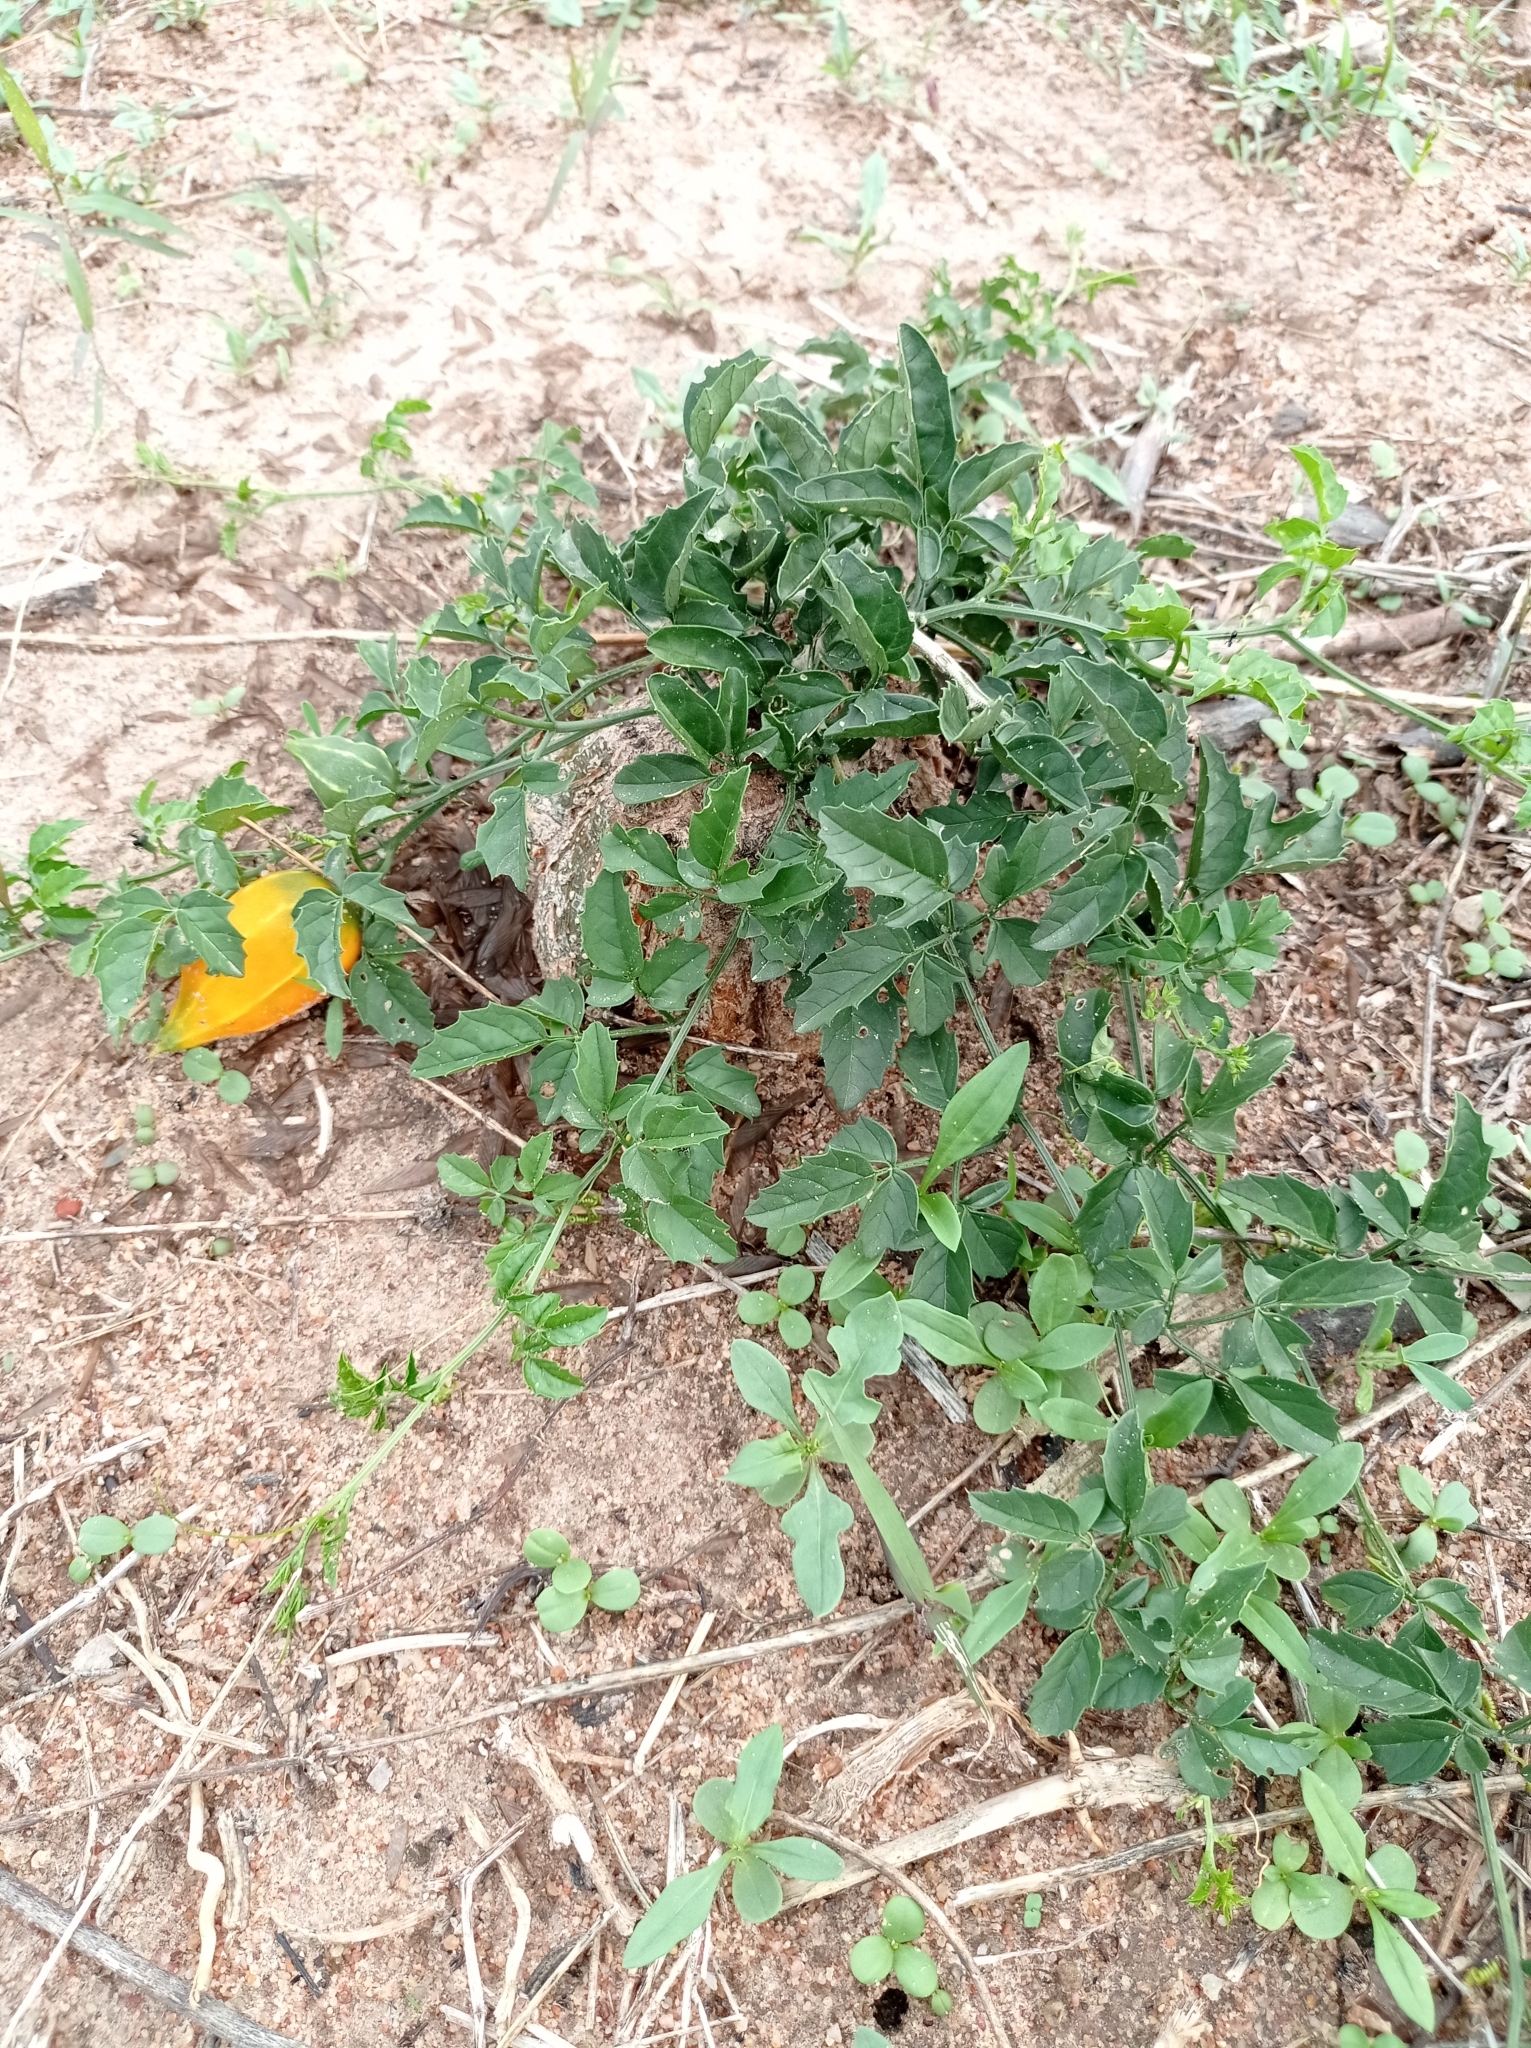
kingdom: Plantae
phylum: Tracheophyta
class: Magnoliopsida
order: Cucurbitales
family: Cucurbitaceae
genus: Momordica
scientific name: Momordica rostrata
